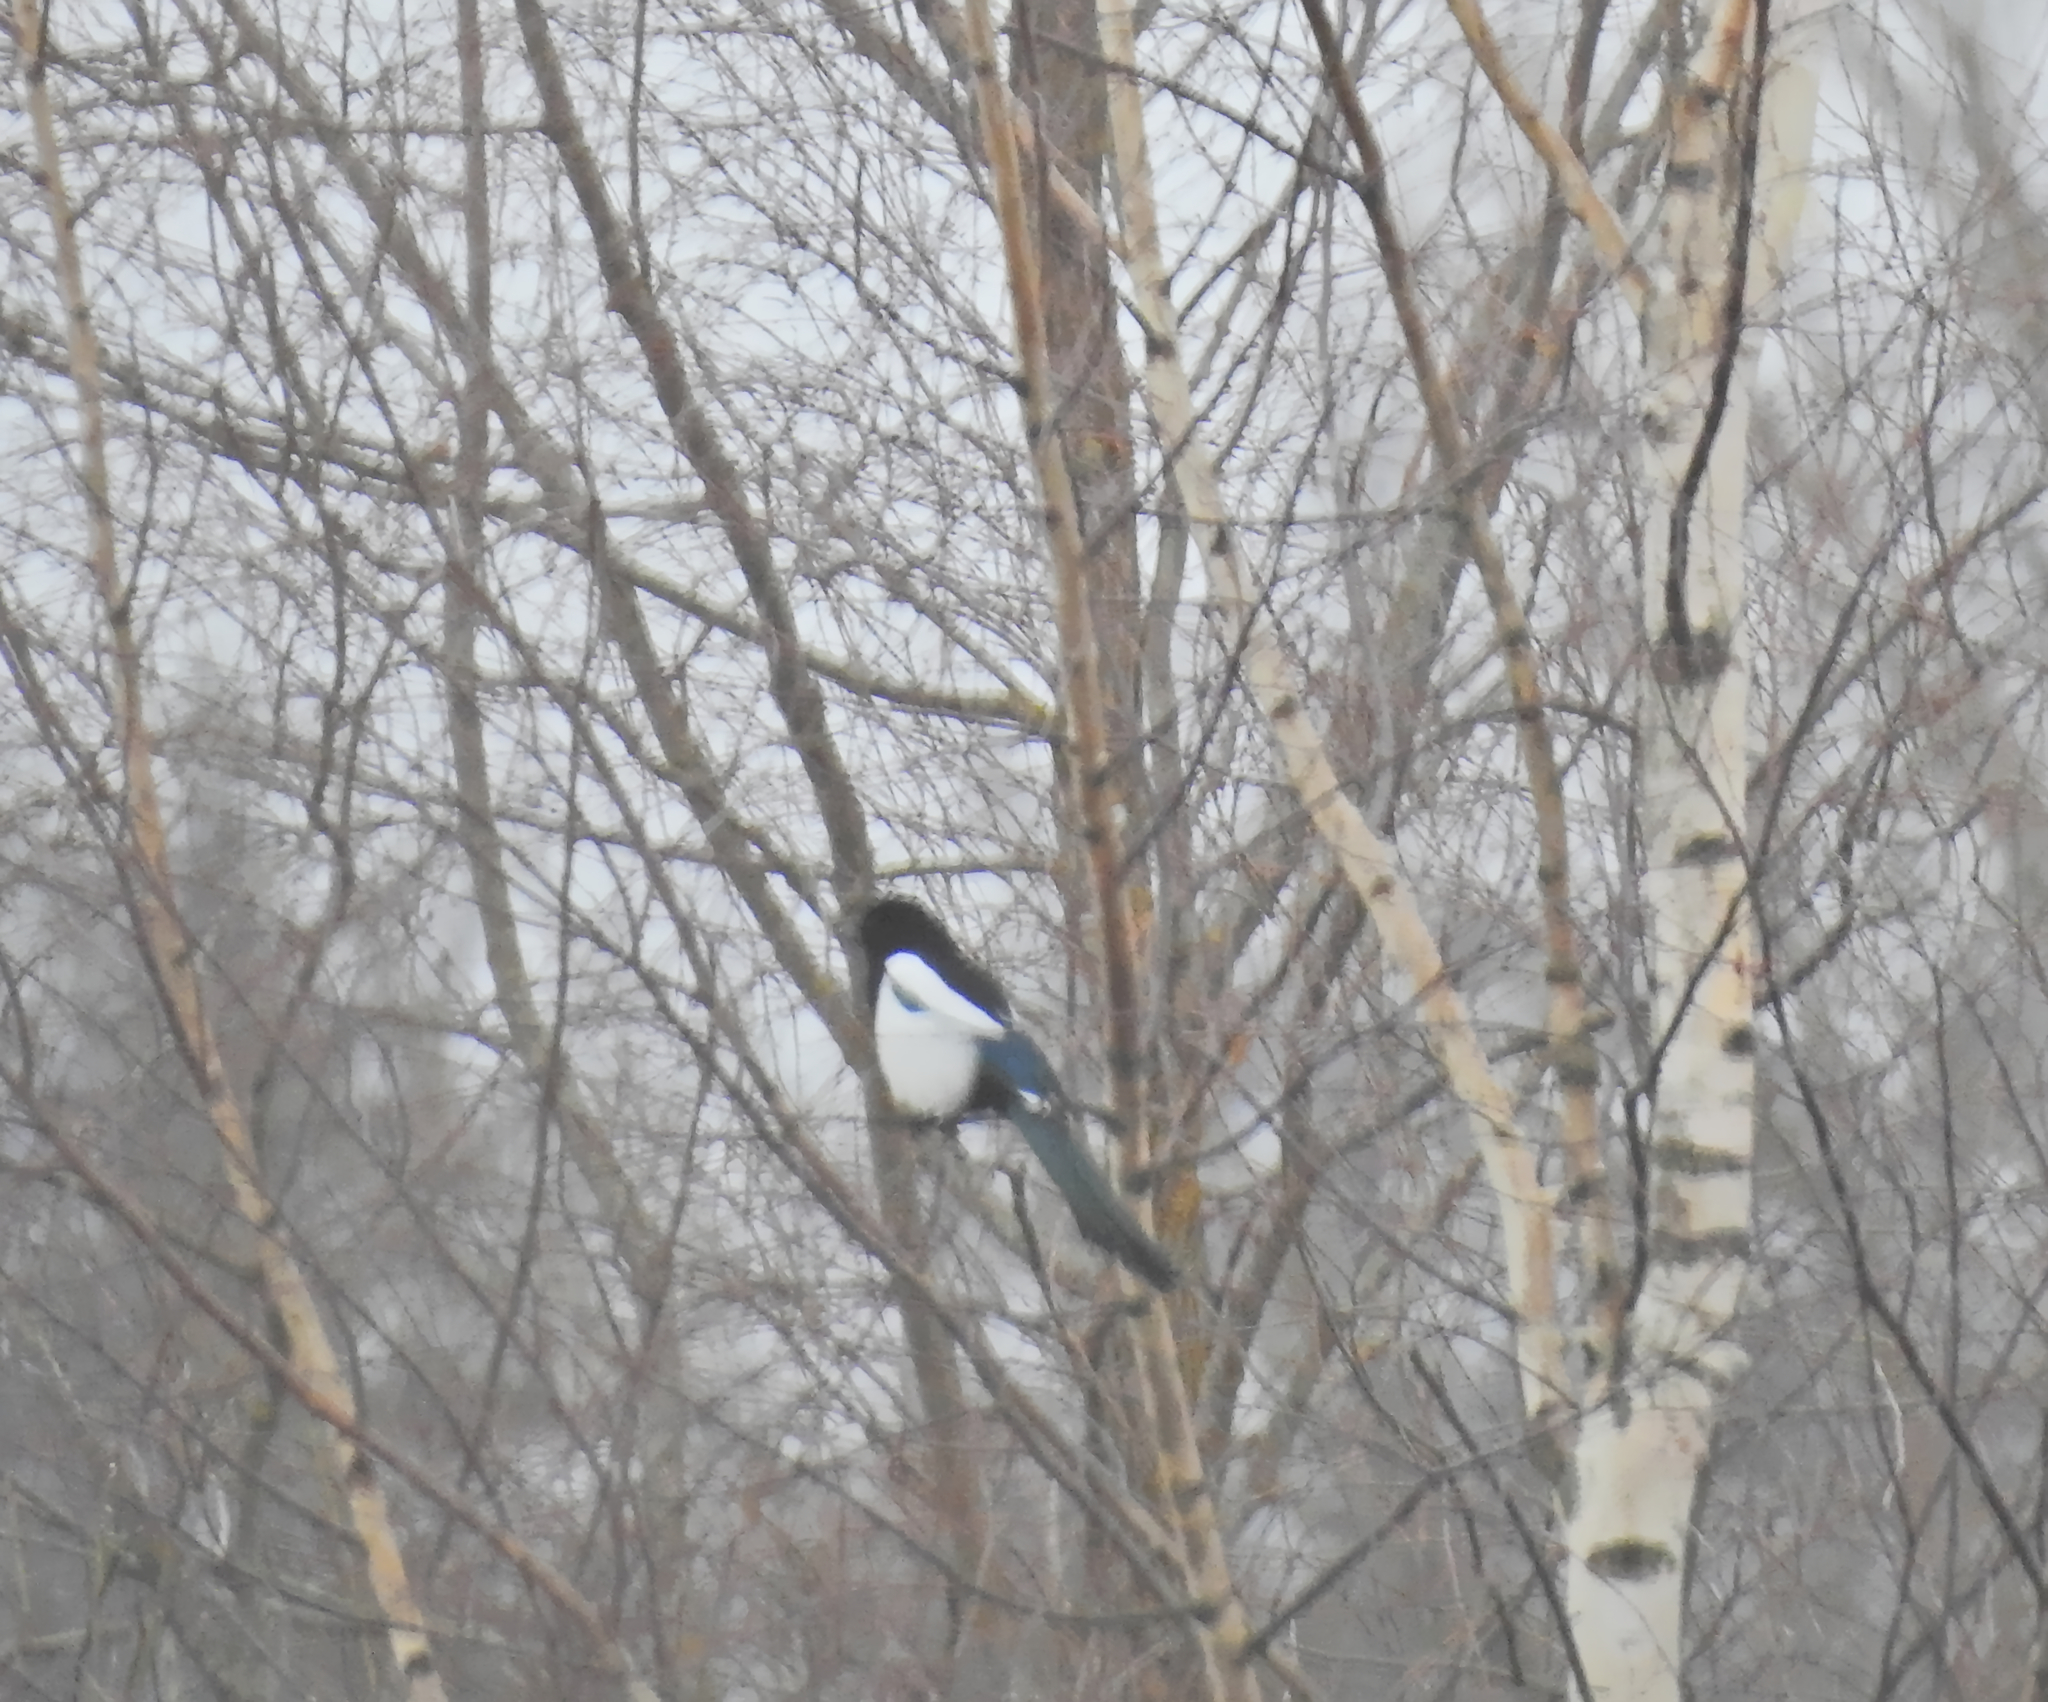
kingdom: Animalia
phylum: Chordata
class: Aves
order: Passeriformes
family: Corvidae
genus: Pica
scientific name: Pica pica
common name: Eurasian magpie
